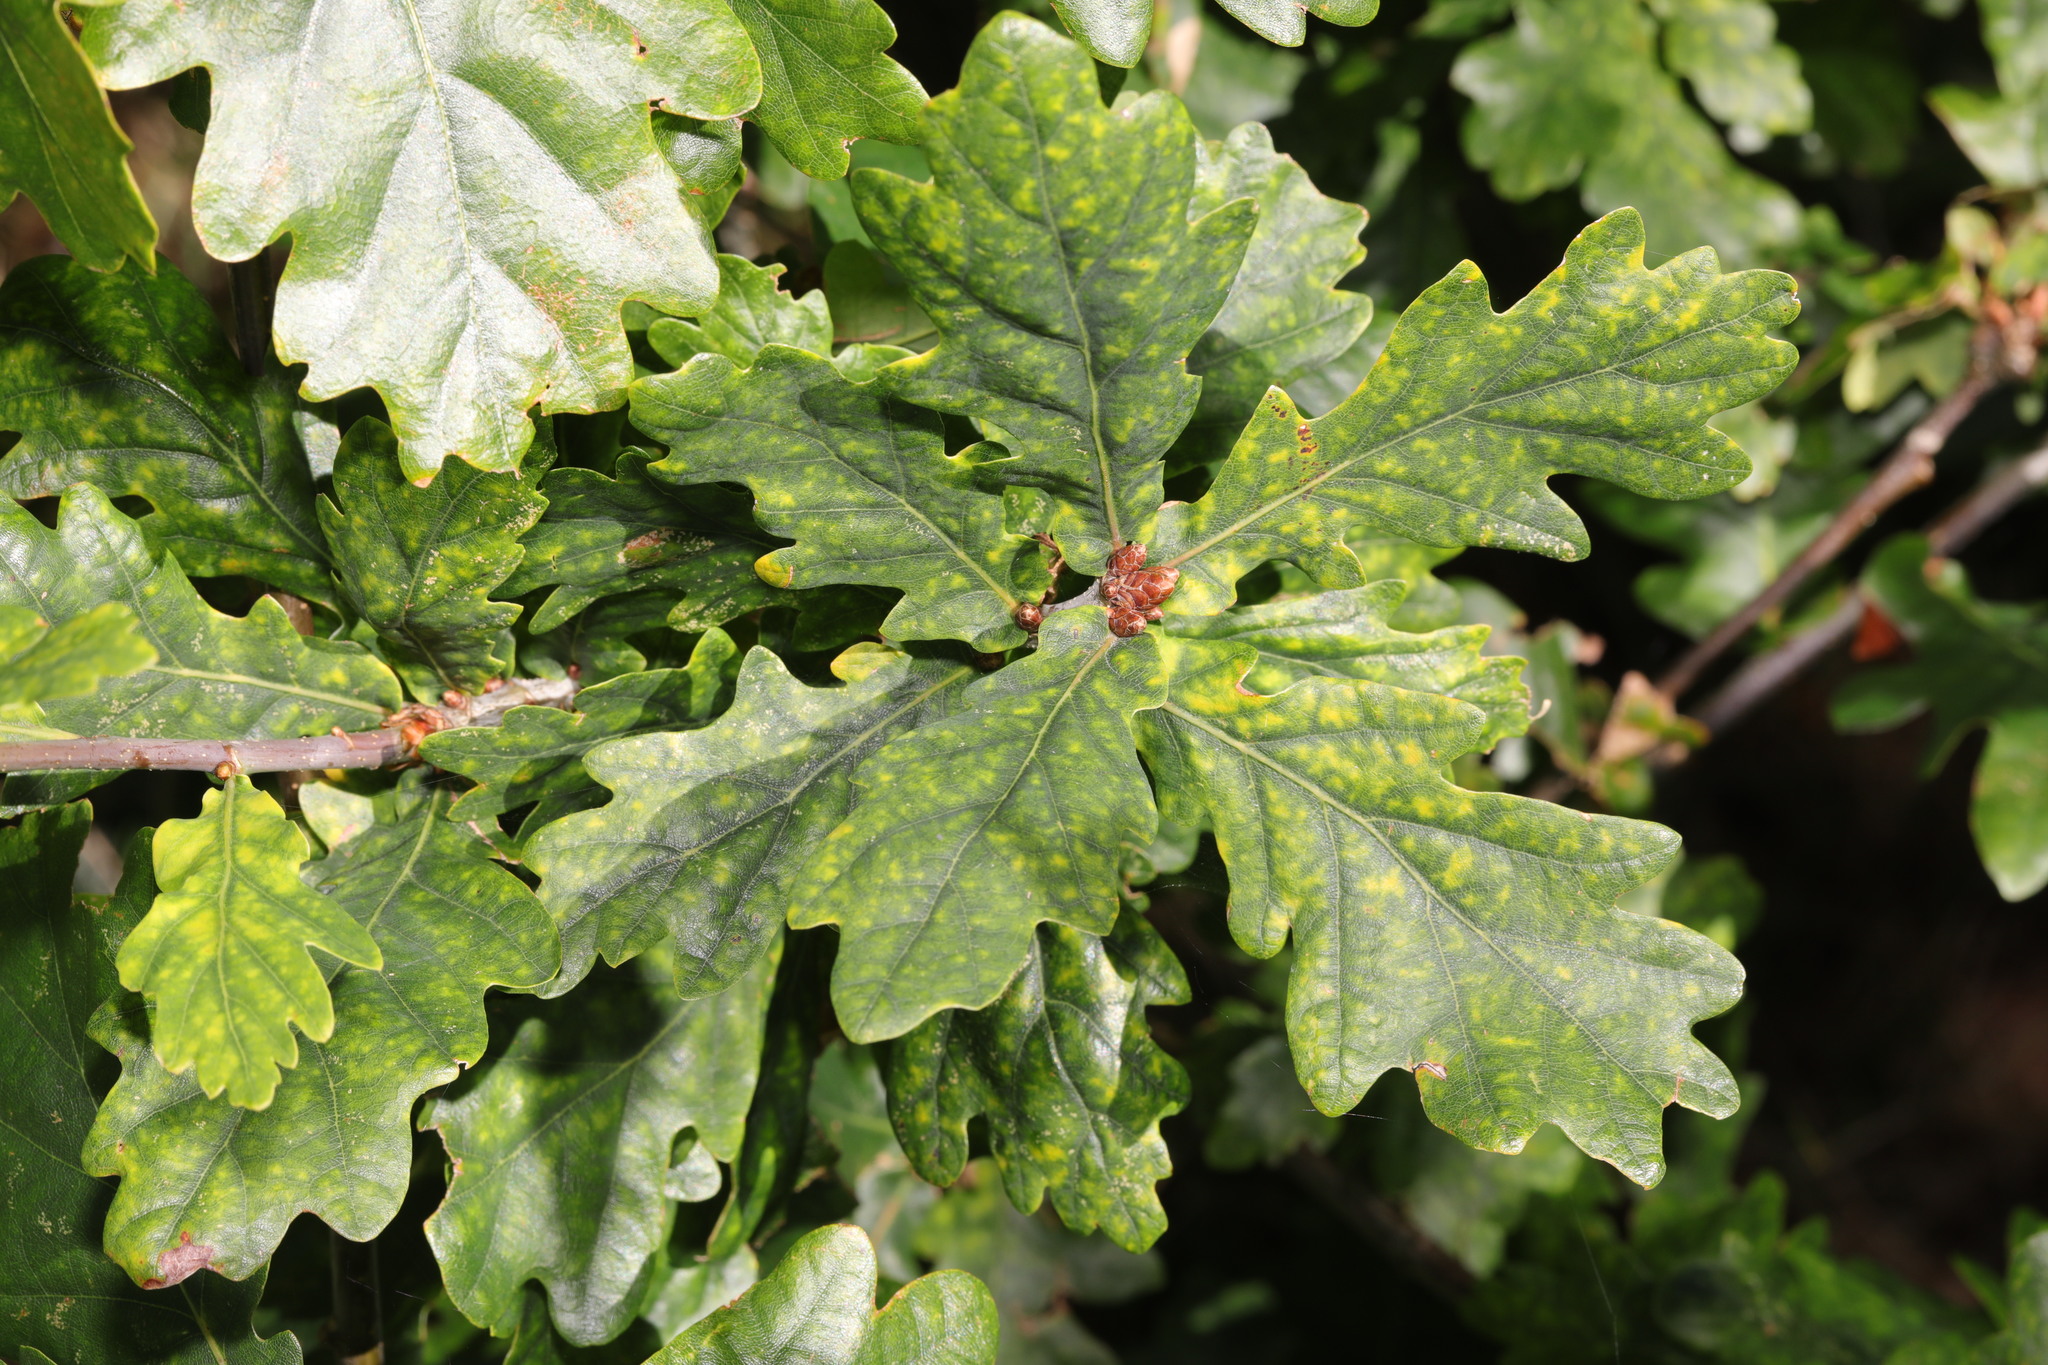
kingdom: Plantae
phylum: Tracheophyta
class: Magnoliopsida
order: Fagales
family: Fagaceae
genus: Quercus
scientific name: Quercus robur
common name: Pedunculate oak
